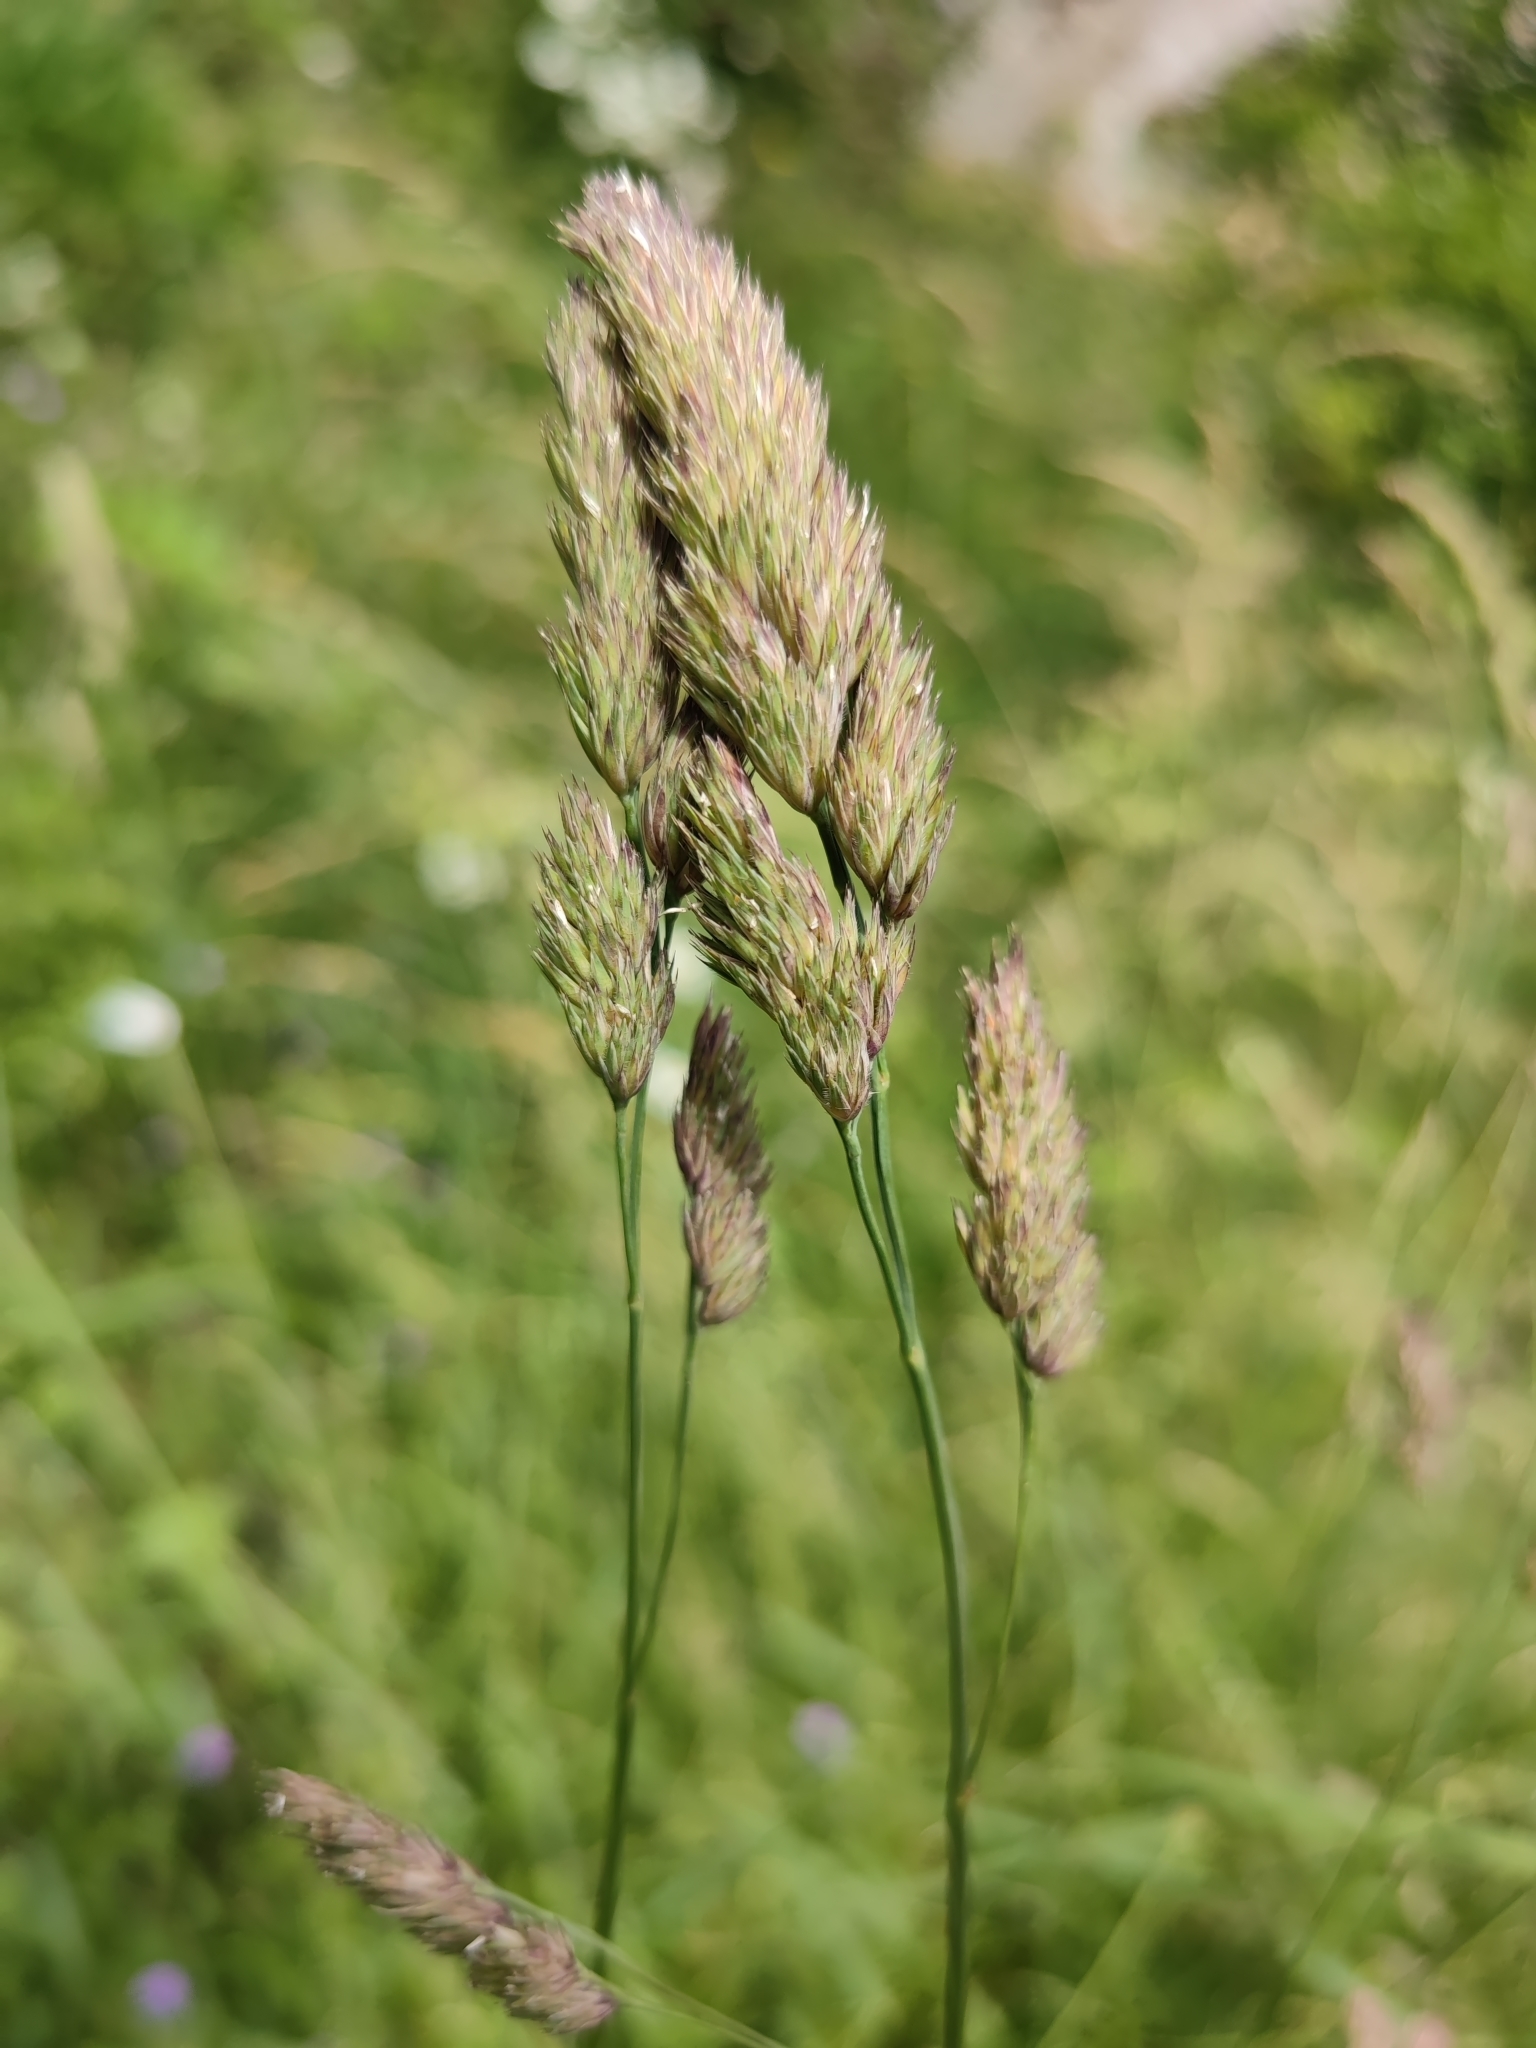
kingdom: Plantae
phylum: Tracheophyta
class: Liliopsida
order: Poales
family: Poaceae
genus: Dactylis
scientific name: Dactylis glomerata
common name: Orchardgrass
